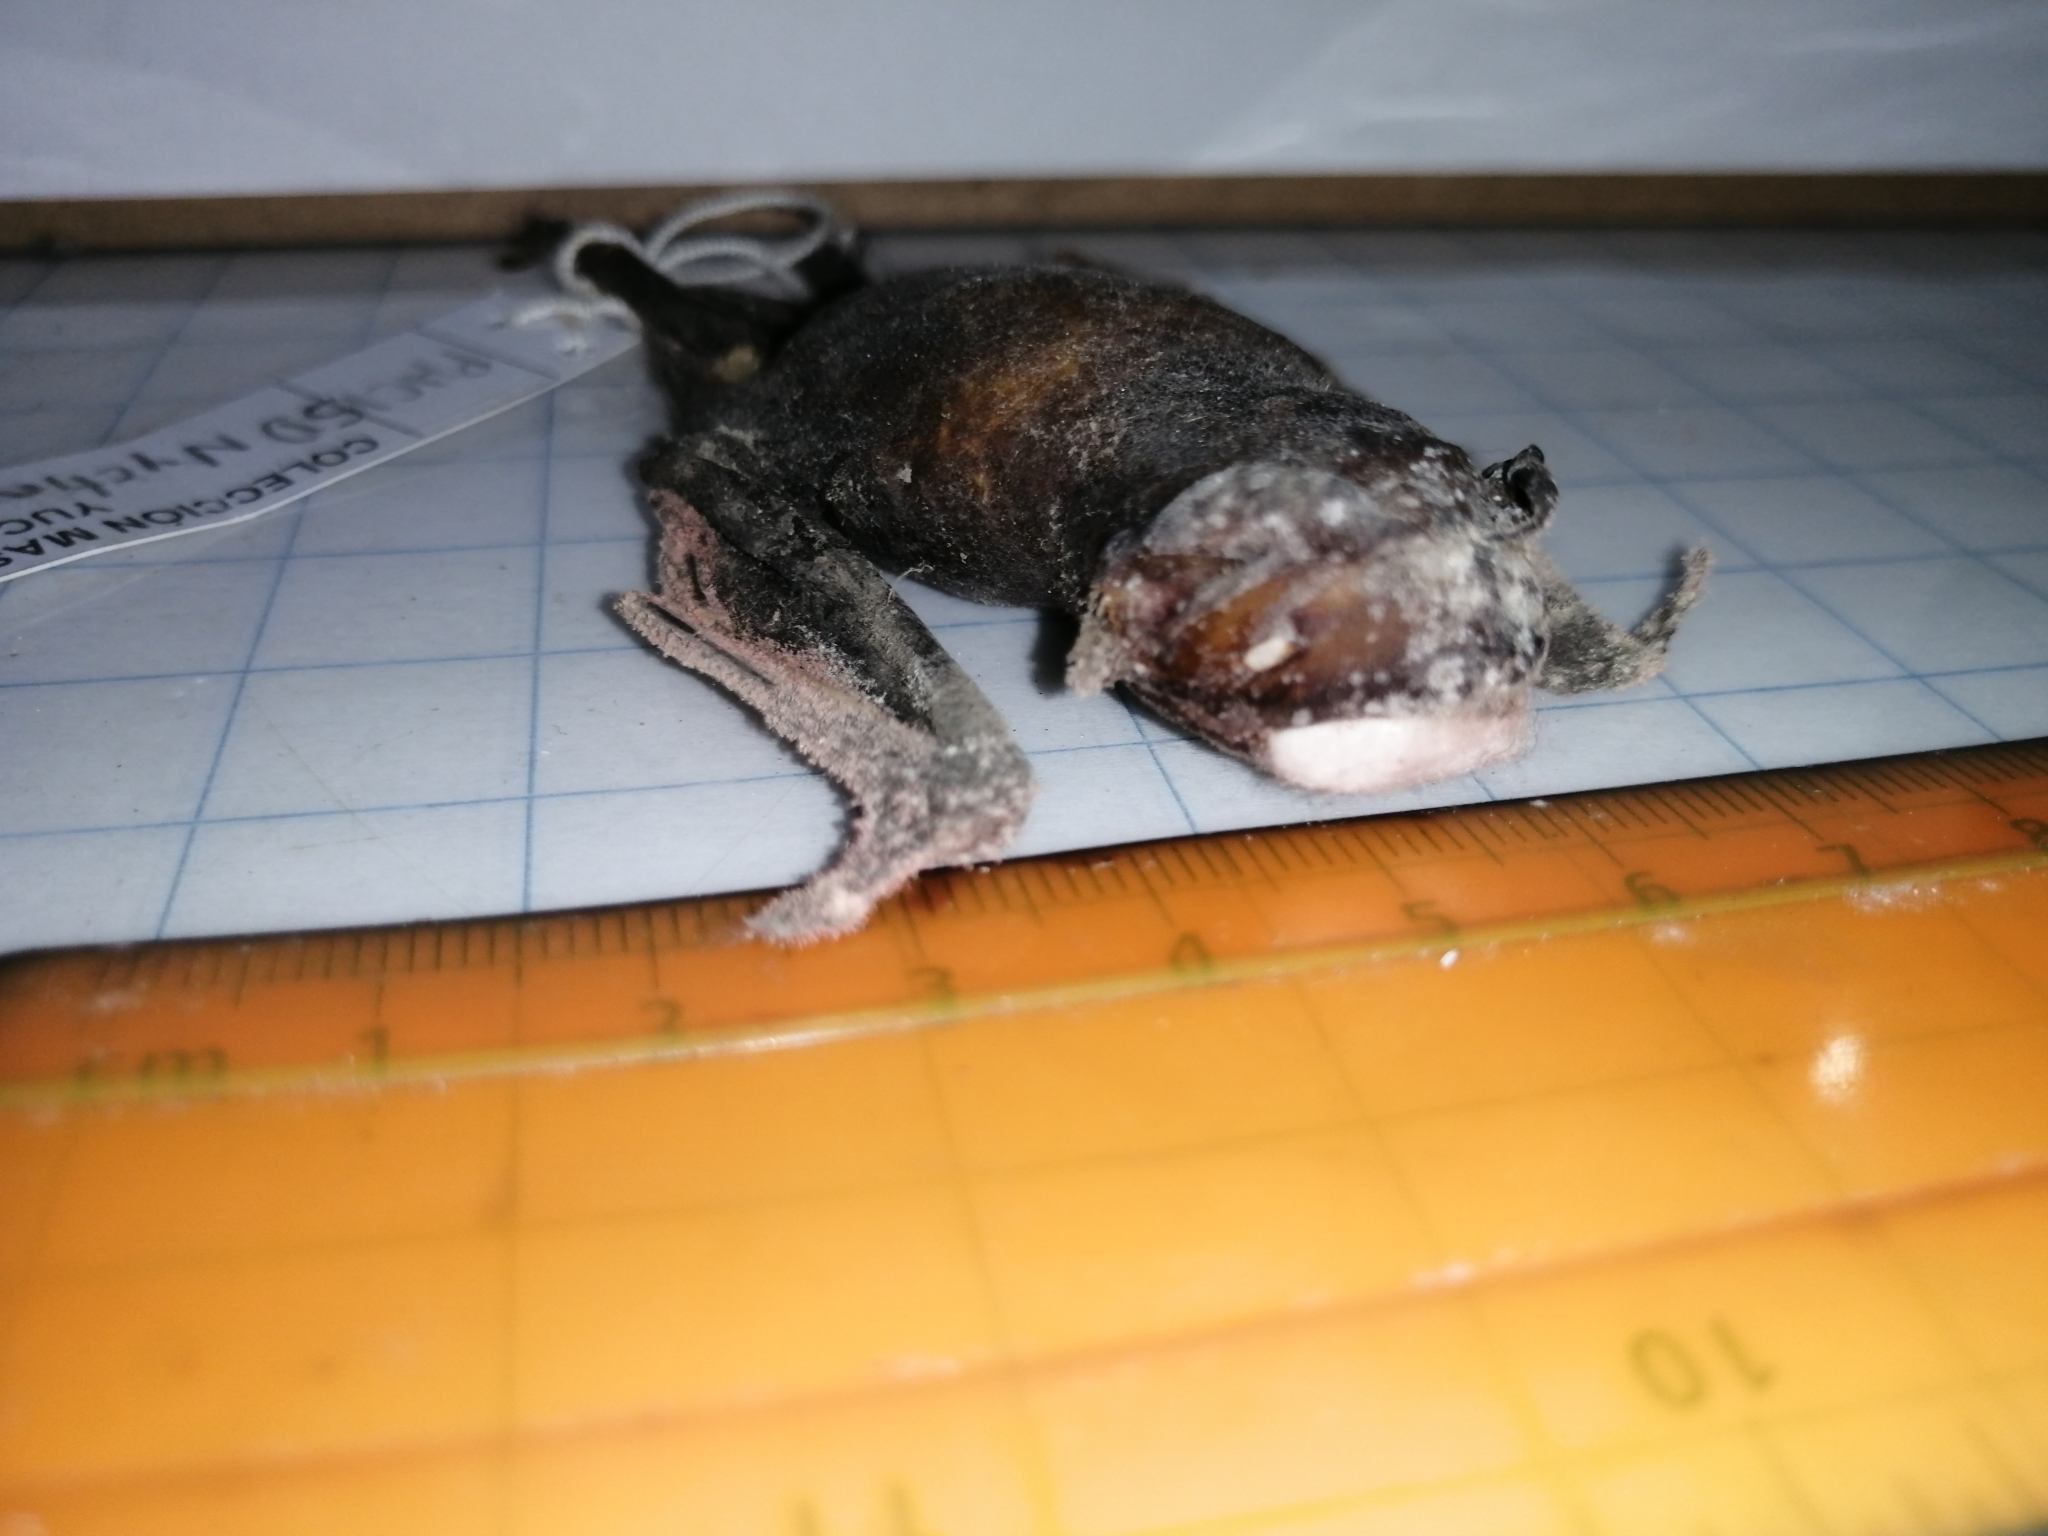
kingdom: Animalia
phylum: Chordata
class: Mammalia
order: Chiroptera
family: Molossidae
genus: Nyctinomops
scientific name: Nyctinomops laticaudatus
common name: Broad-eared free-tailed bat
